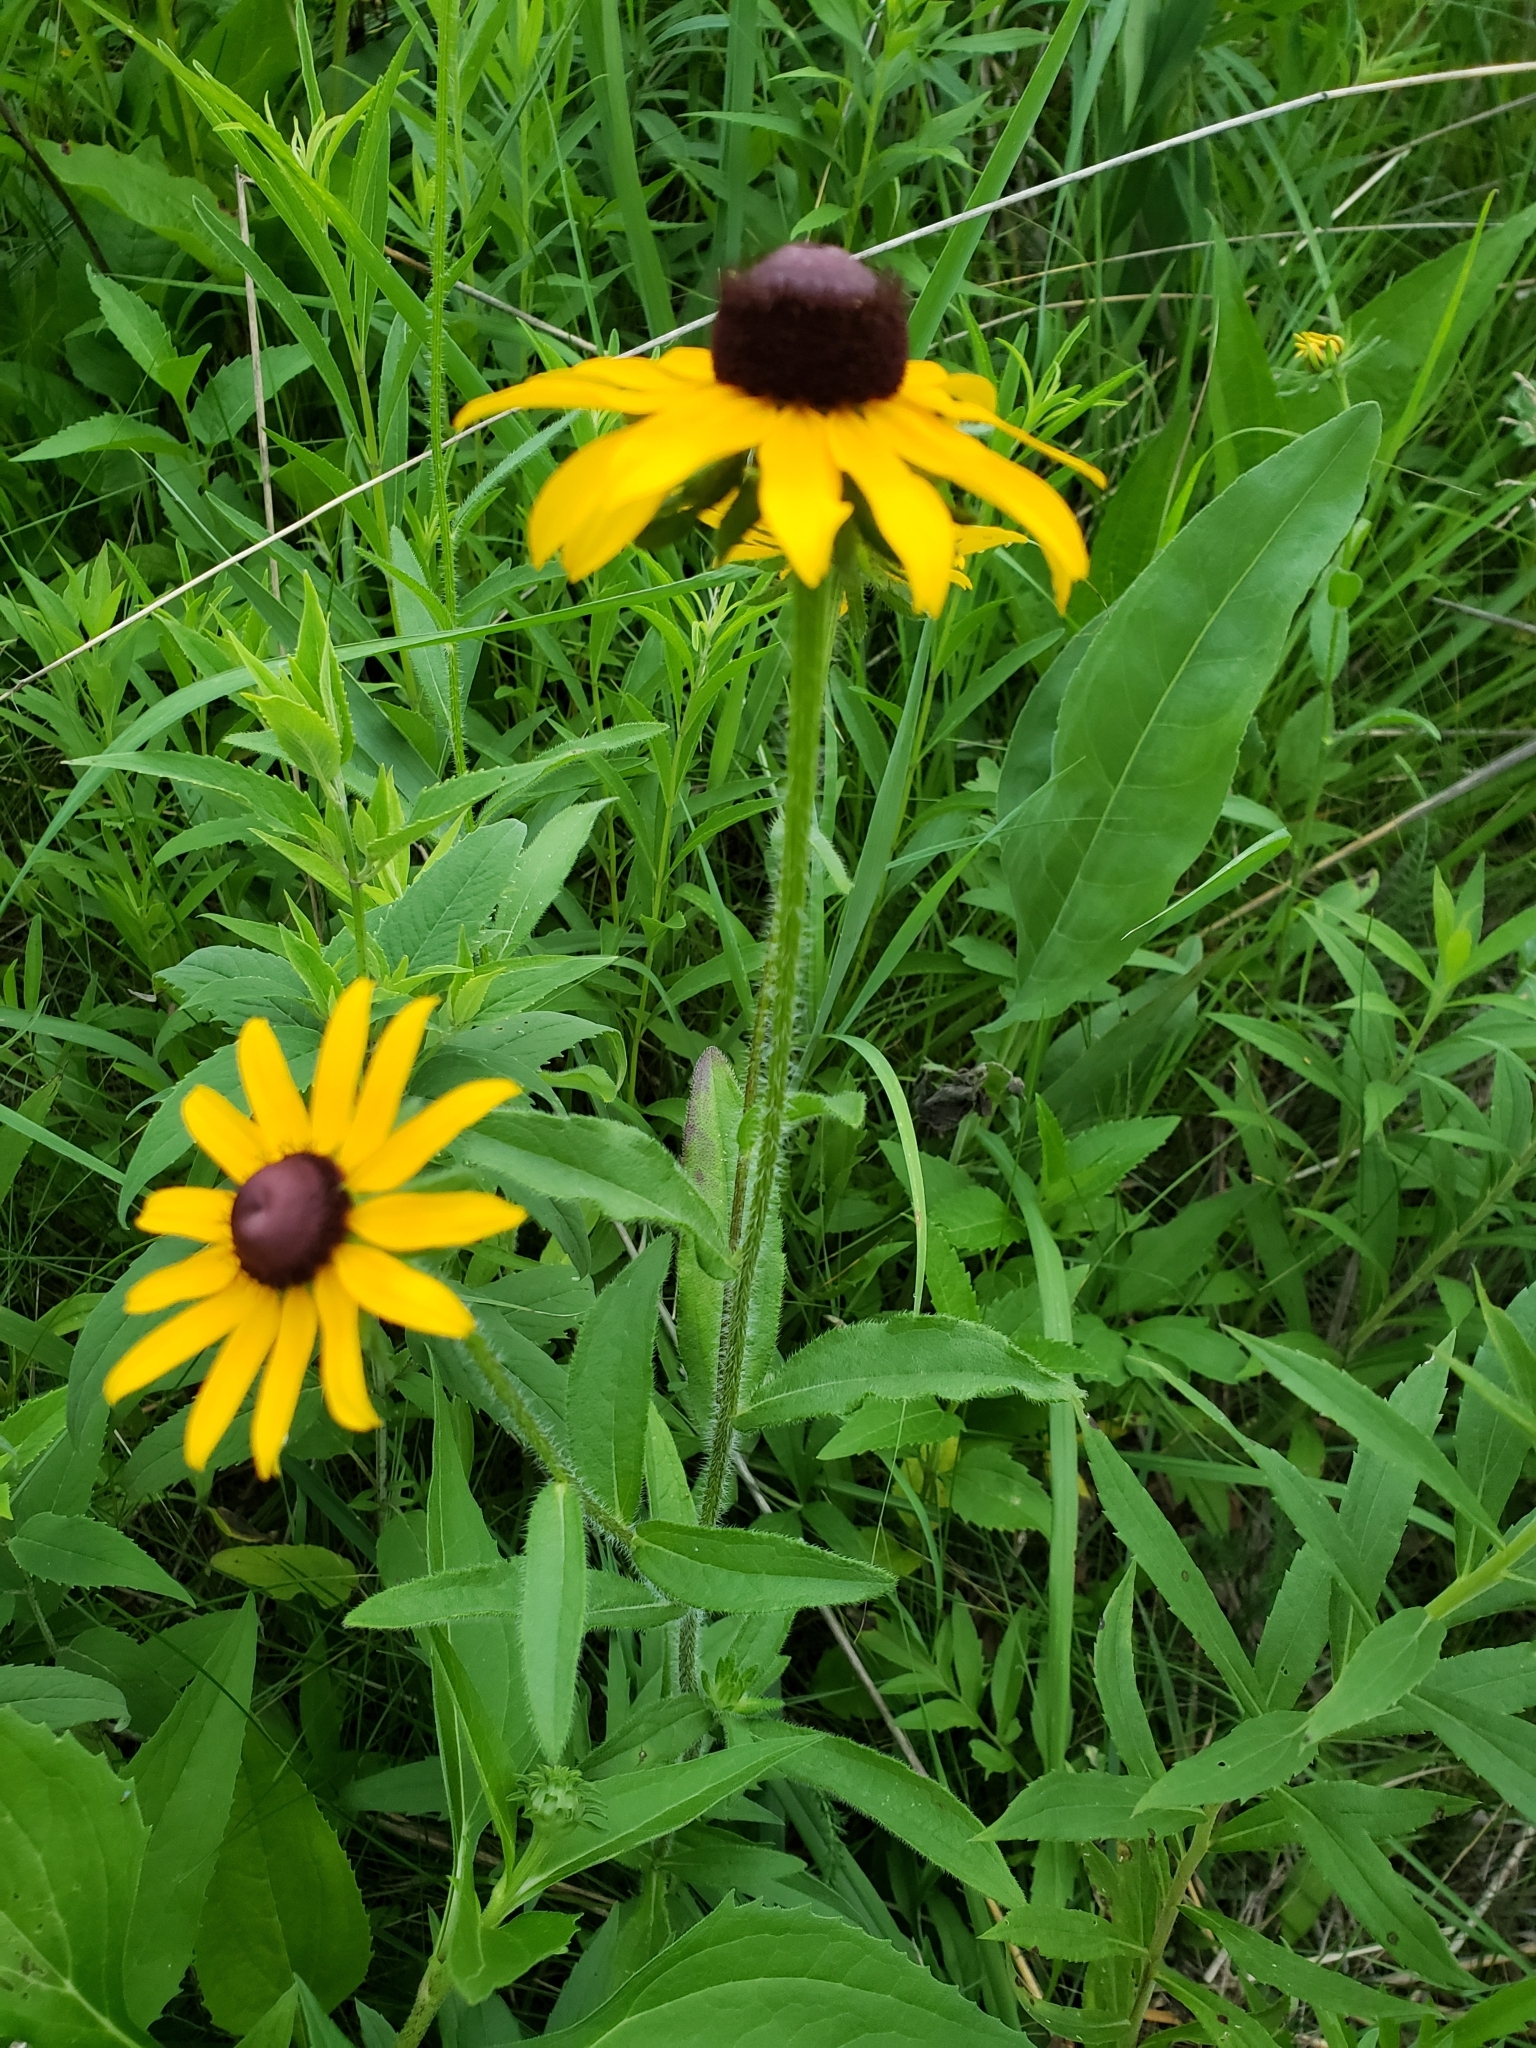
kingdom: Plantae
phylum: Tracheophyta
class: Magnoliopsida
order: Asterales
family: Asteraceae
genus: Rudbeckia
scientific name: Rudbeckia hirta
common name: Black-eyed-susan
